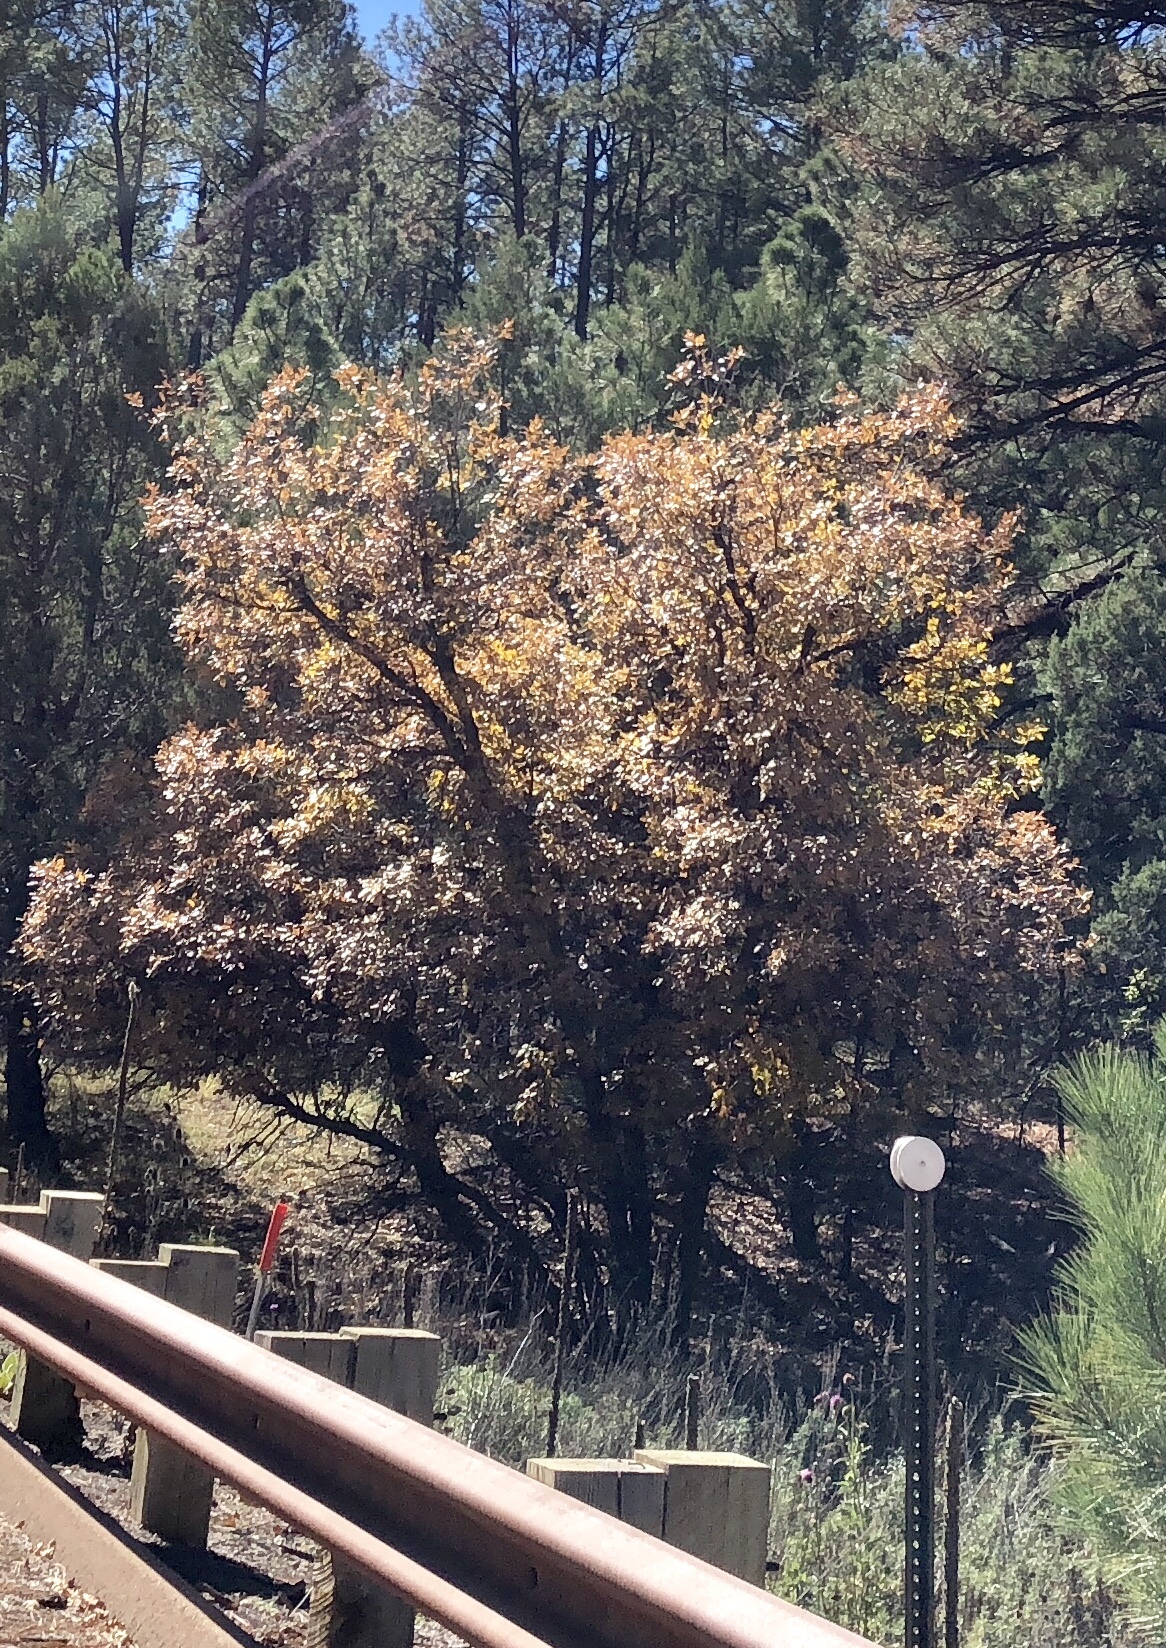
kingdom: Plantae
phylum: Tracheophyta
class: Magnoliopsida
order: Fagales
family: Fagaceae
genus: Quercus
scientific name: Quercus gambelii
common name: Gambel oak
